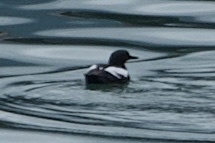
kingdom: Animalia
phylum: Chordata
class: Aves
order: Charadriiformes
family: Alcidae
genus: Cepphus
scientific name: Cepphus columba
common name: Pigeon guillemot
